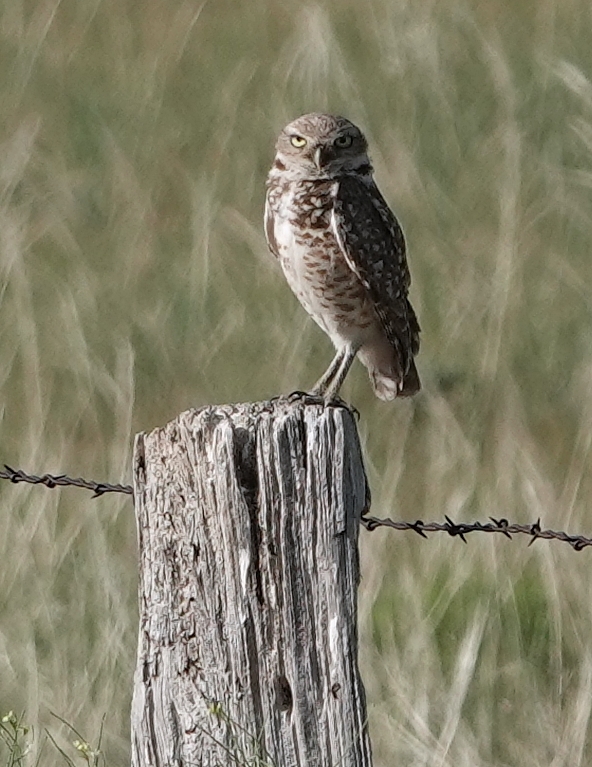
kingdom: Animalia
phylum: Chordata
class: Aves
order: Strigiformes
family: Strigidae
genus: Athene
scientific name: Athene cunicularia
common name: Burrowing owl
